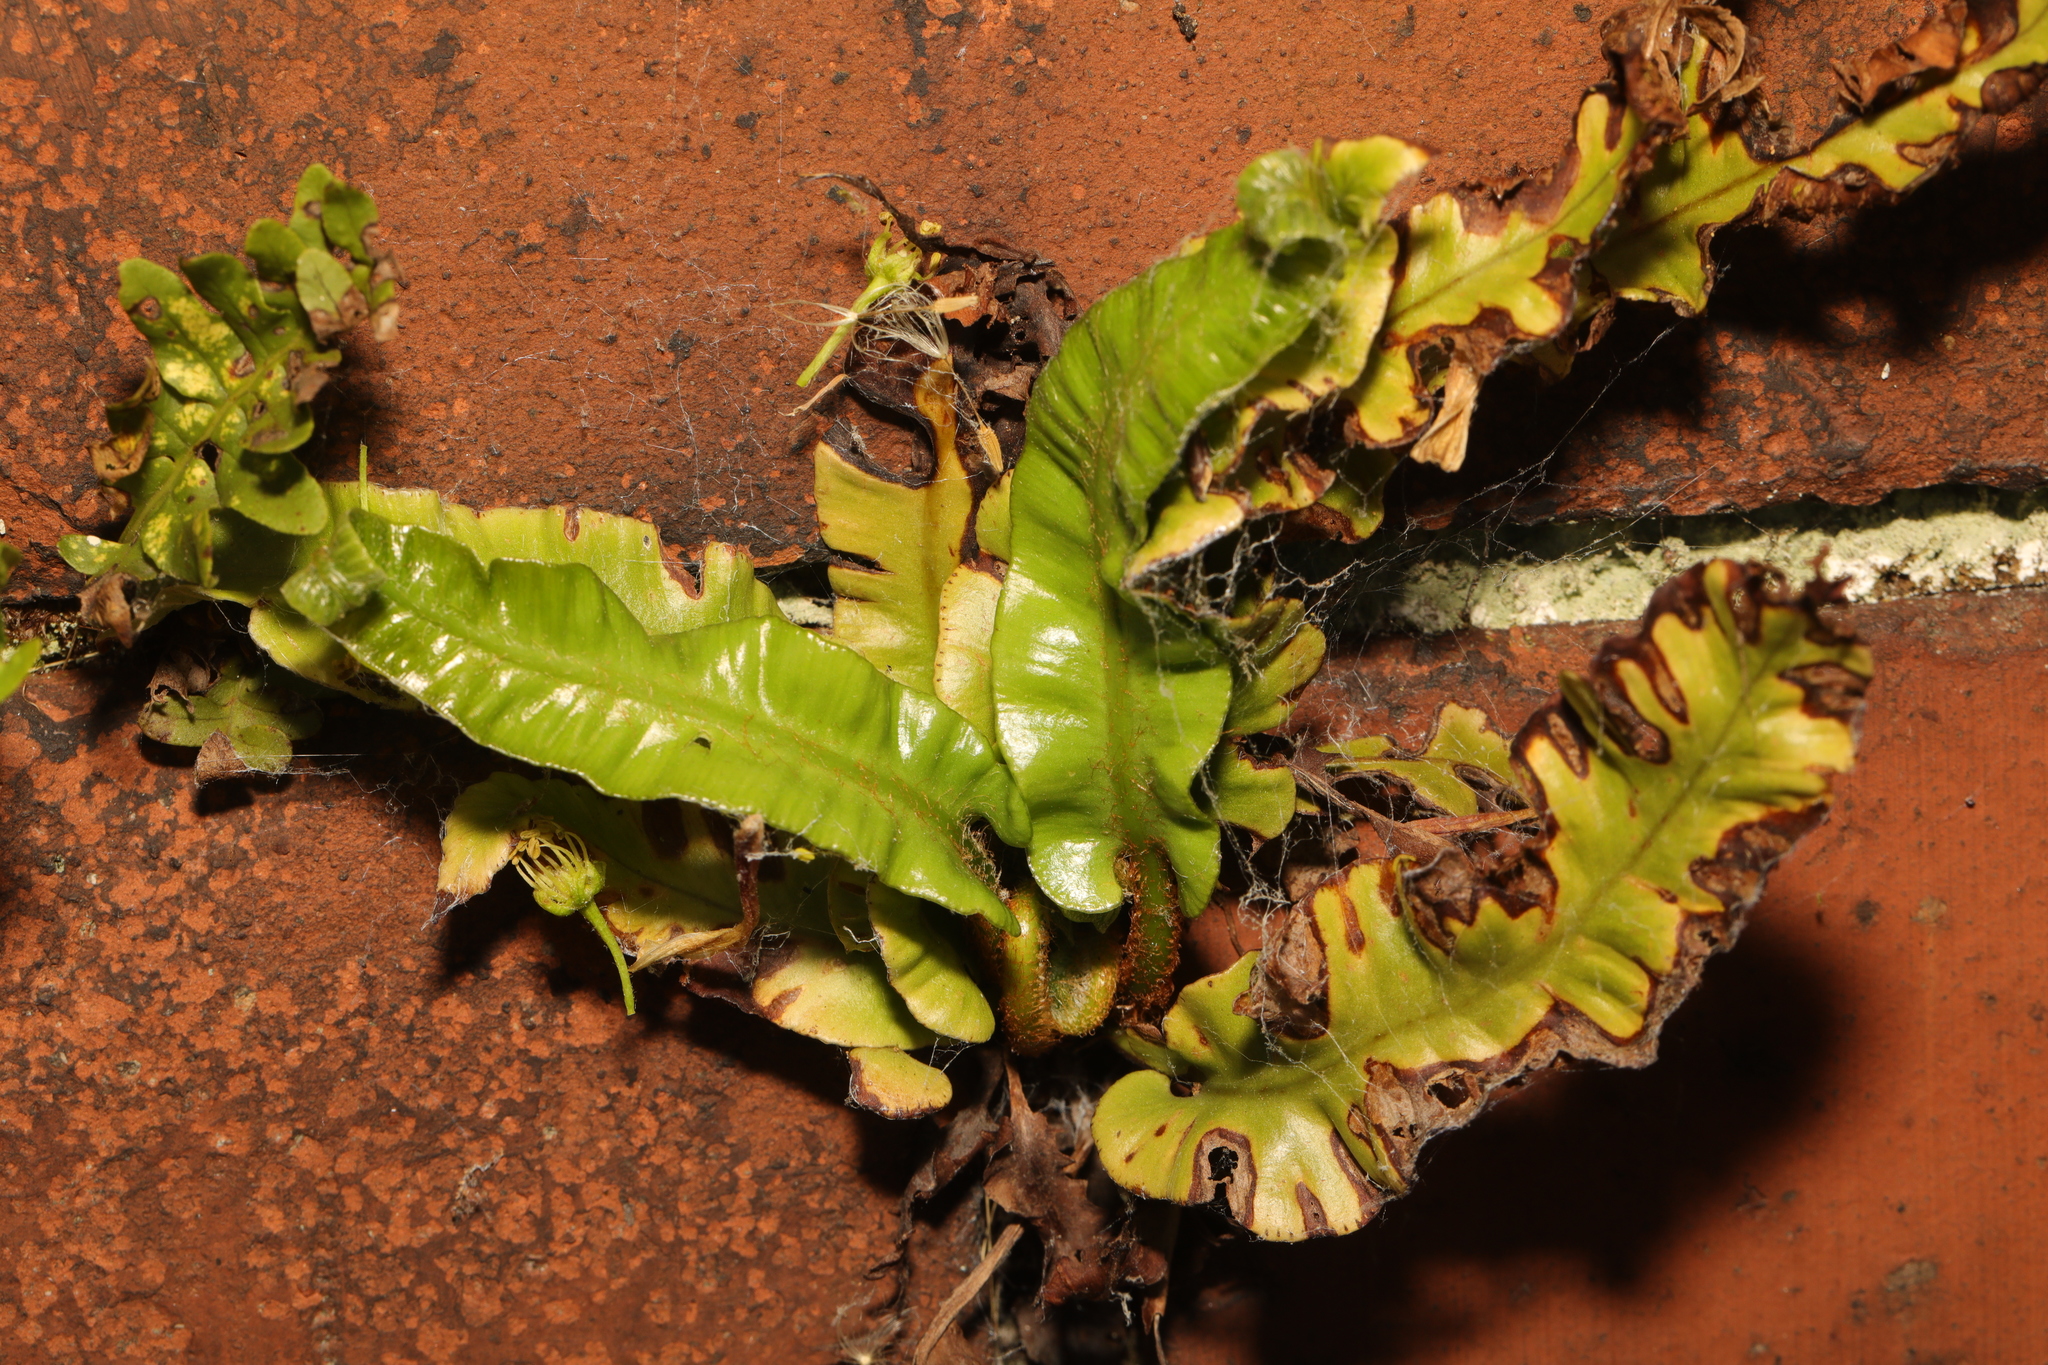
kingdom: Plantae
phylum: Tracheophyta
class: Polypodiopsida
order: Polypodiales
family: Aspleniaceae
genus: Asplenium
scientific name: Asplenium scolopendrium
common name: Hart's-tongue fern
